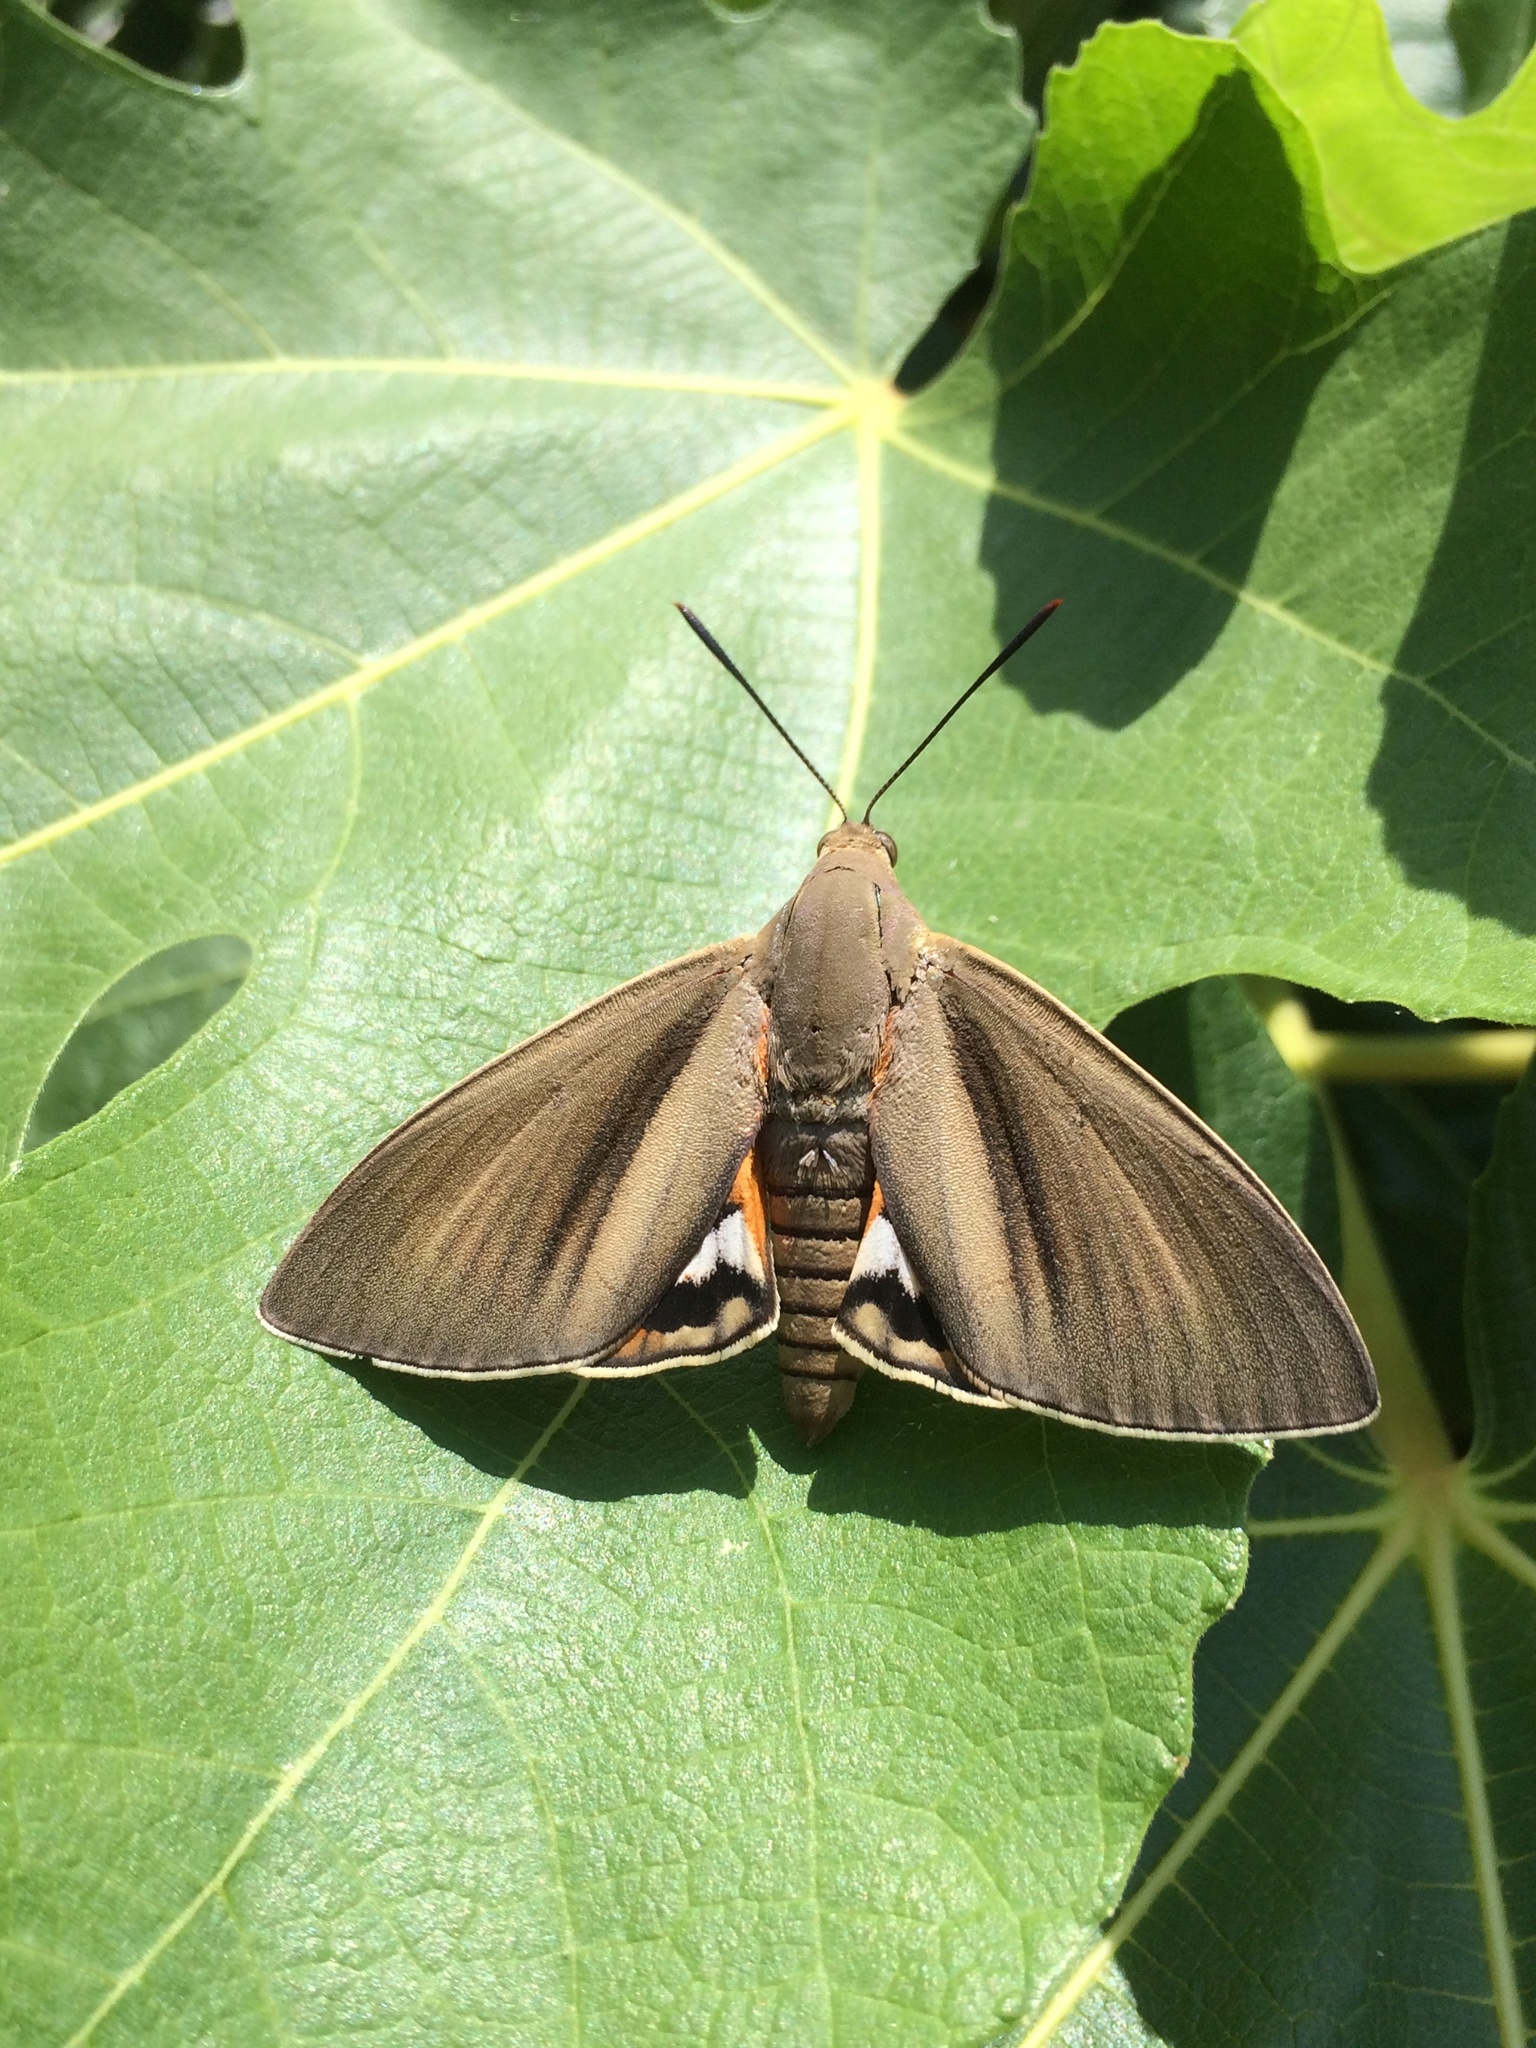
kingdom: Animalia
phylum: Arthropoda
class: Insecta
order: Lepidoptera
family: Castniidae
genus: Paysandisia
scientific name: Paysandisia archon
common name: Palm moth
